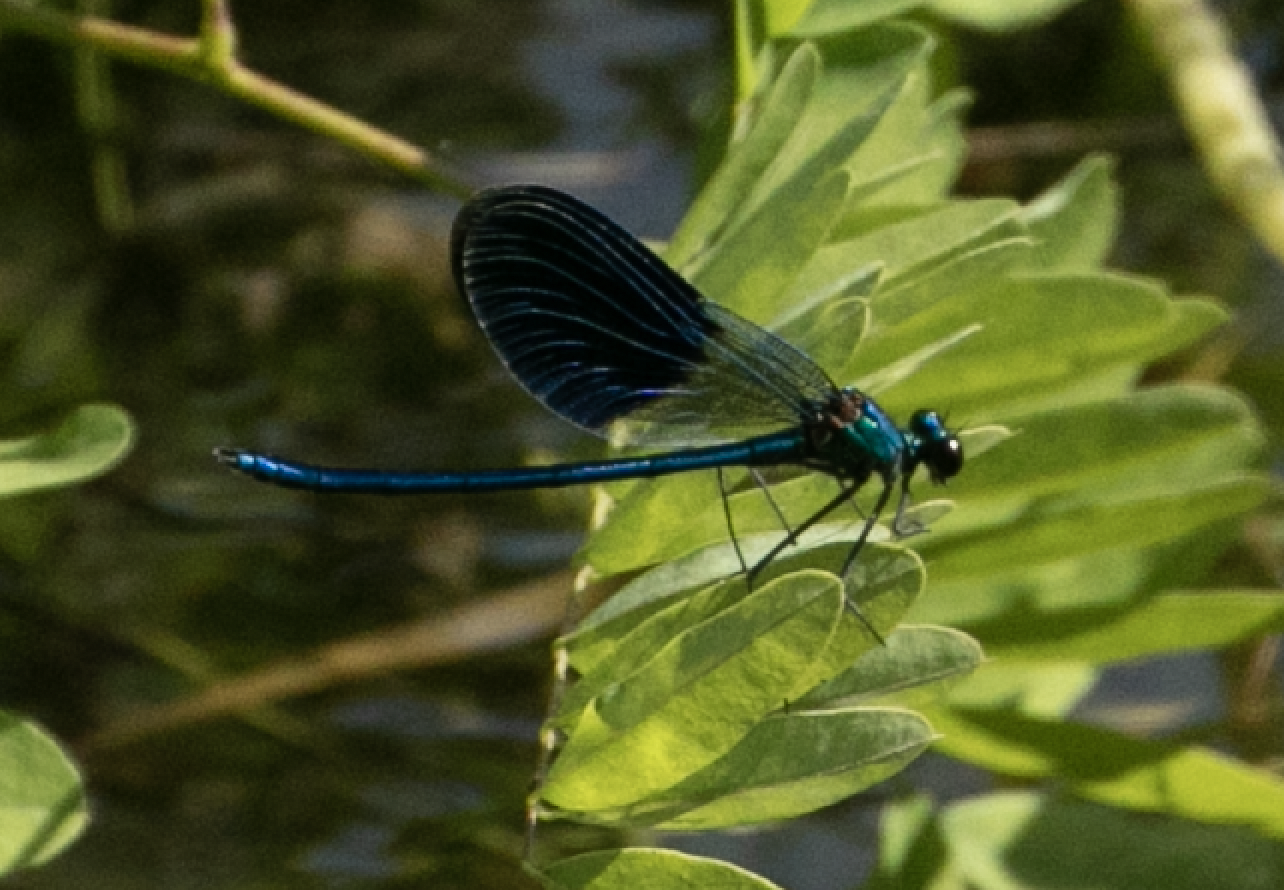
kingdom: Animalia
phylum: Arthropoda
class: Insecta
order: Odonata
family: Calopterygidae
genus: Calopteryx
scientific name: Calopteryx splendens
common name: Banded demoiselle
